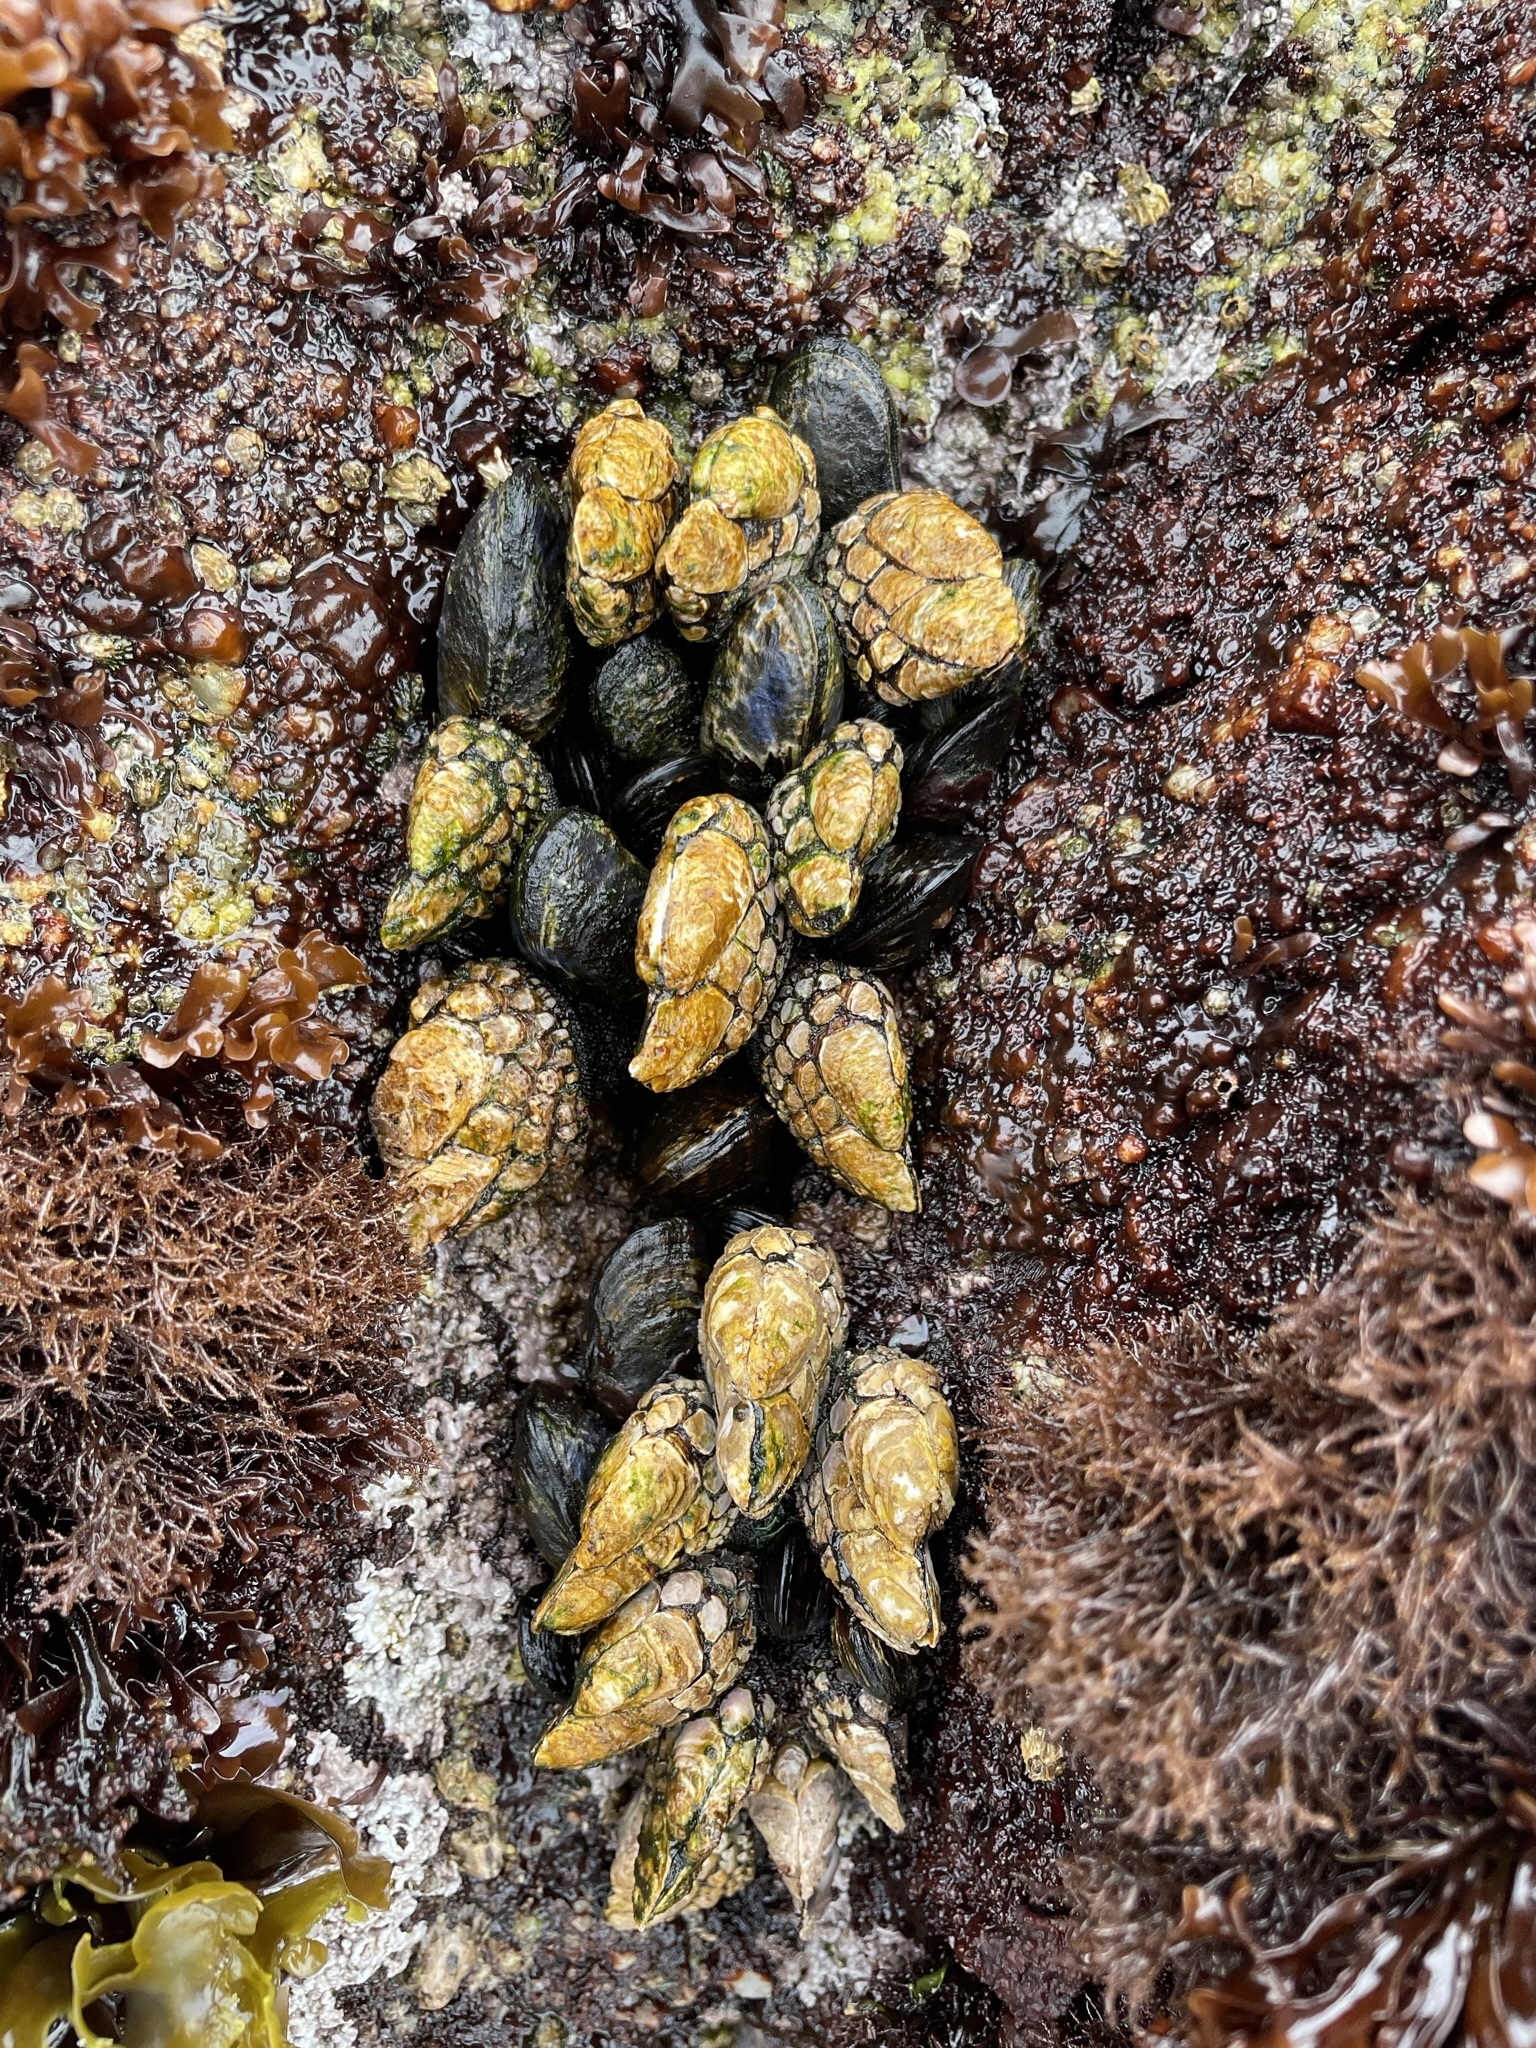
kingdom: Animalia
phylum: Arthropoda
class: Maxillopoda
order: Pedunculata
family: Pollicipedidae
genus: Pollicipes
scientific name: Pollicipes polymerus
